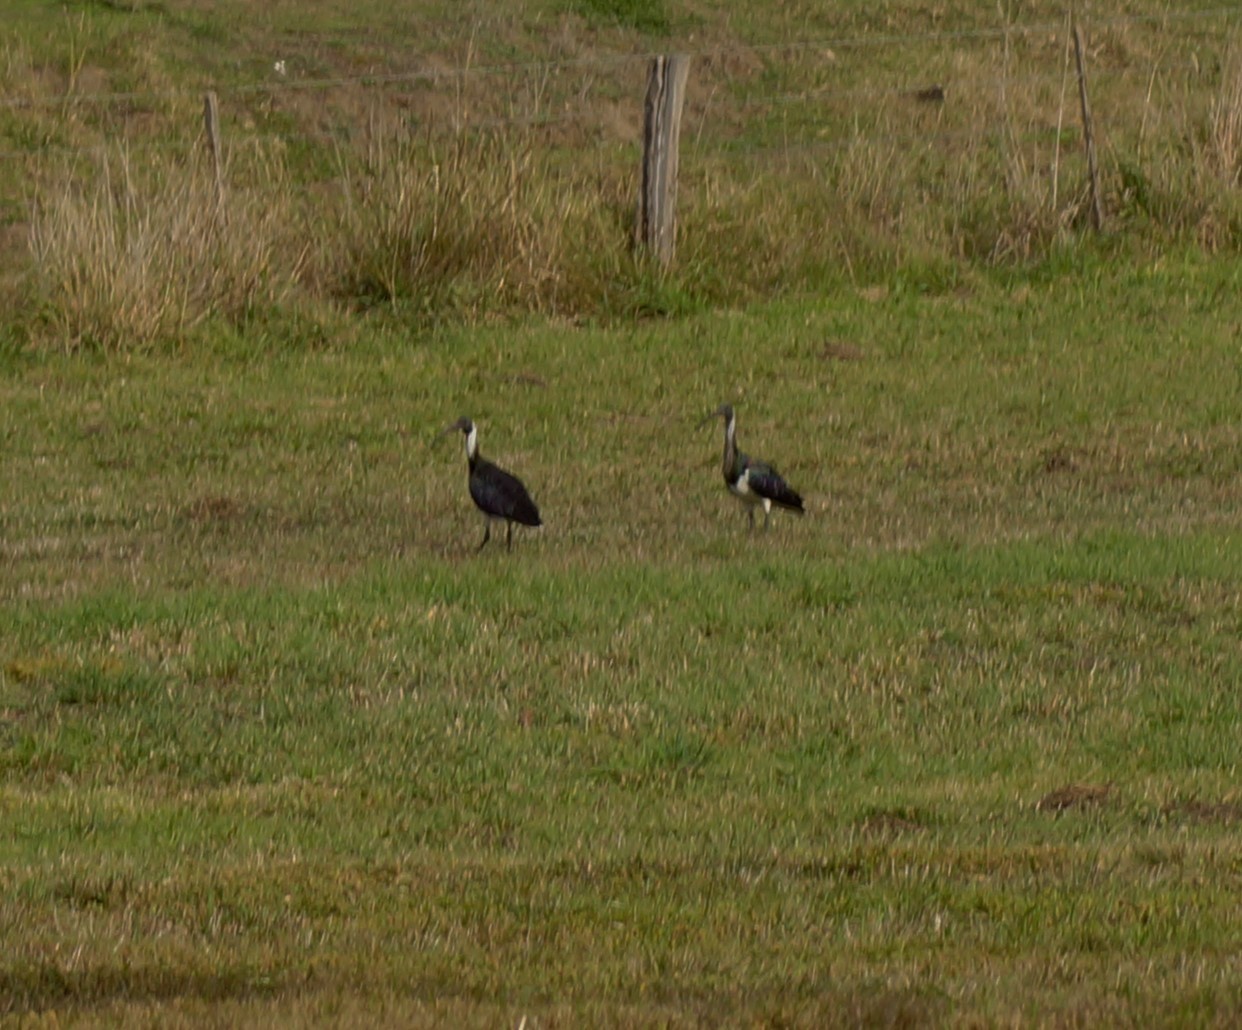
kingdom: Animalia
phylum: Chordata
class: Aves
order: Pelecaniformes
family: Threskiornithidae
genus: Threskiornis
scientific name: Threskiornis spinicollis
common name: Straw-necked ibis
